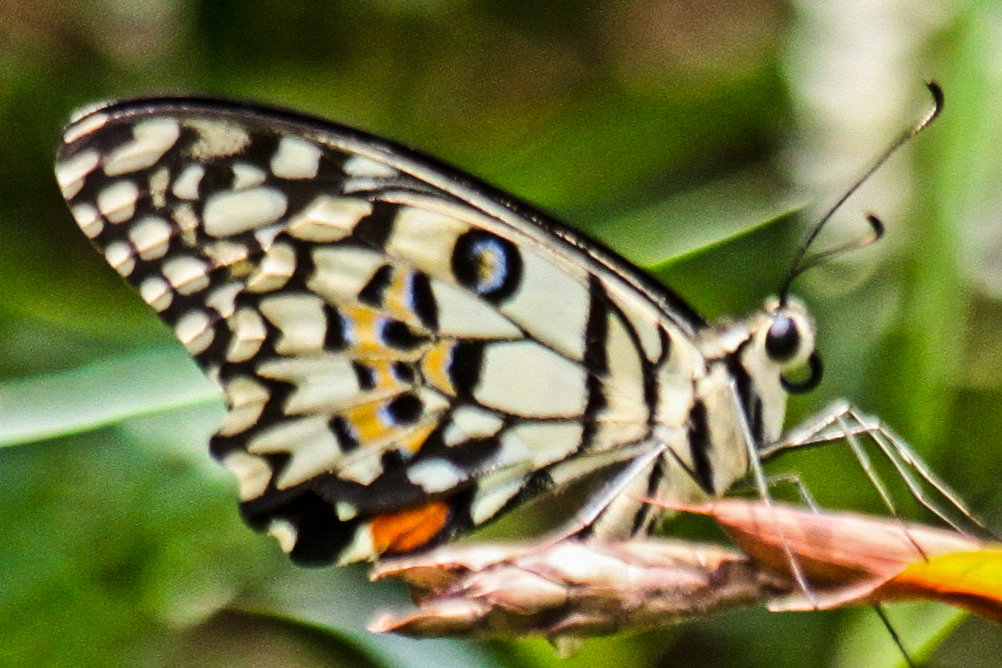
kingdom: Animalia
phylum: Arthropoda
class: Insecta
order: Lepidoptera
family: Papilionidae
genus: Papilio
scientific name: Papilio demoleus
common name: Lime butterfly
